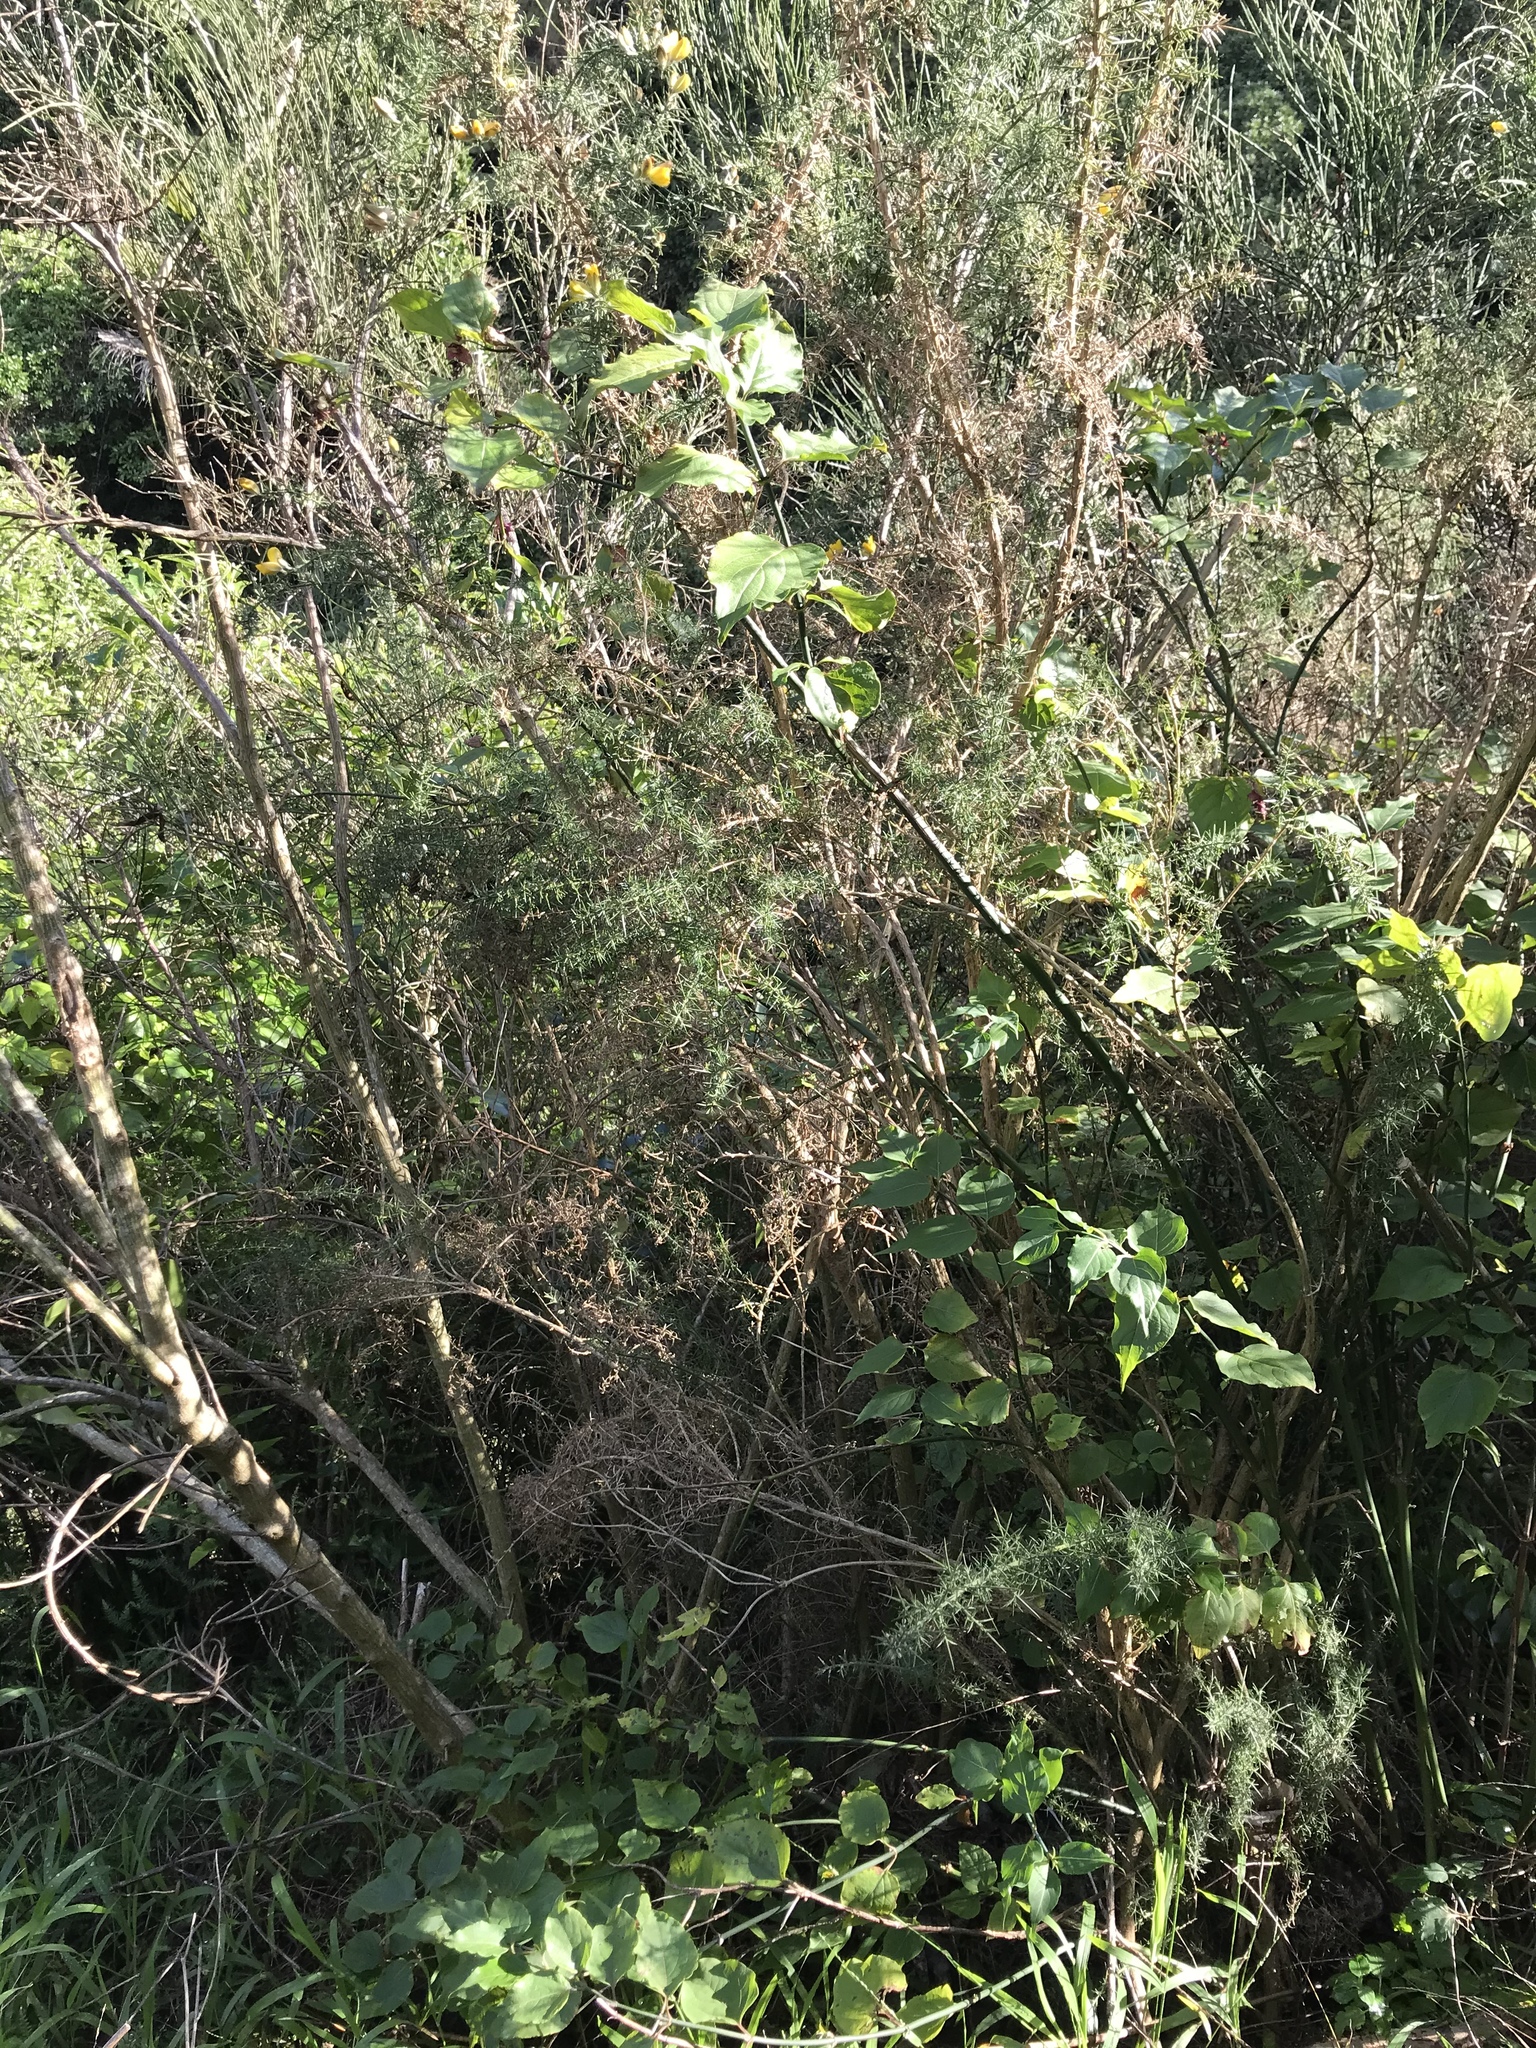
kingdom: Plantae
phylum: Tracheophyta
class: Magnoliopsida
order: Dipsacales
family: Caprifoliaceae
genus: Leycesteria
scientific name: Leycesteria formosa
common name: Himalayan honeysuckle
